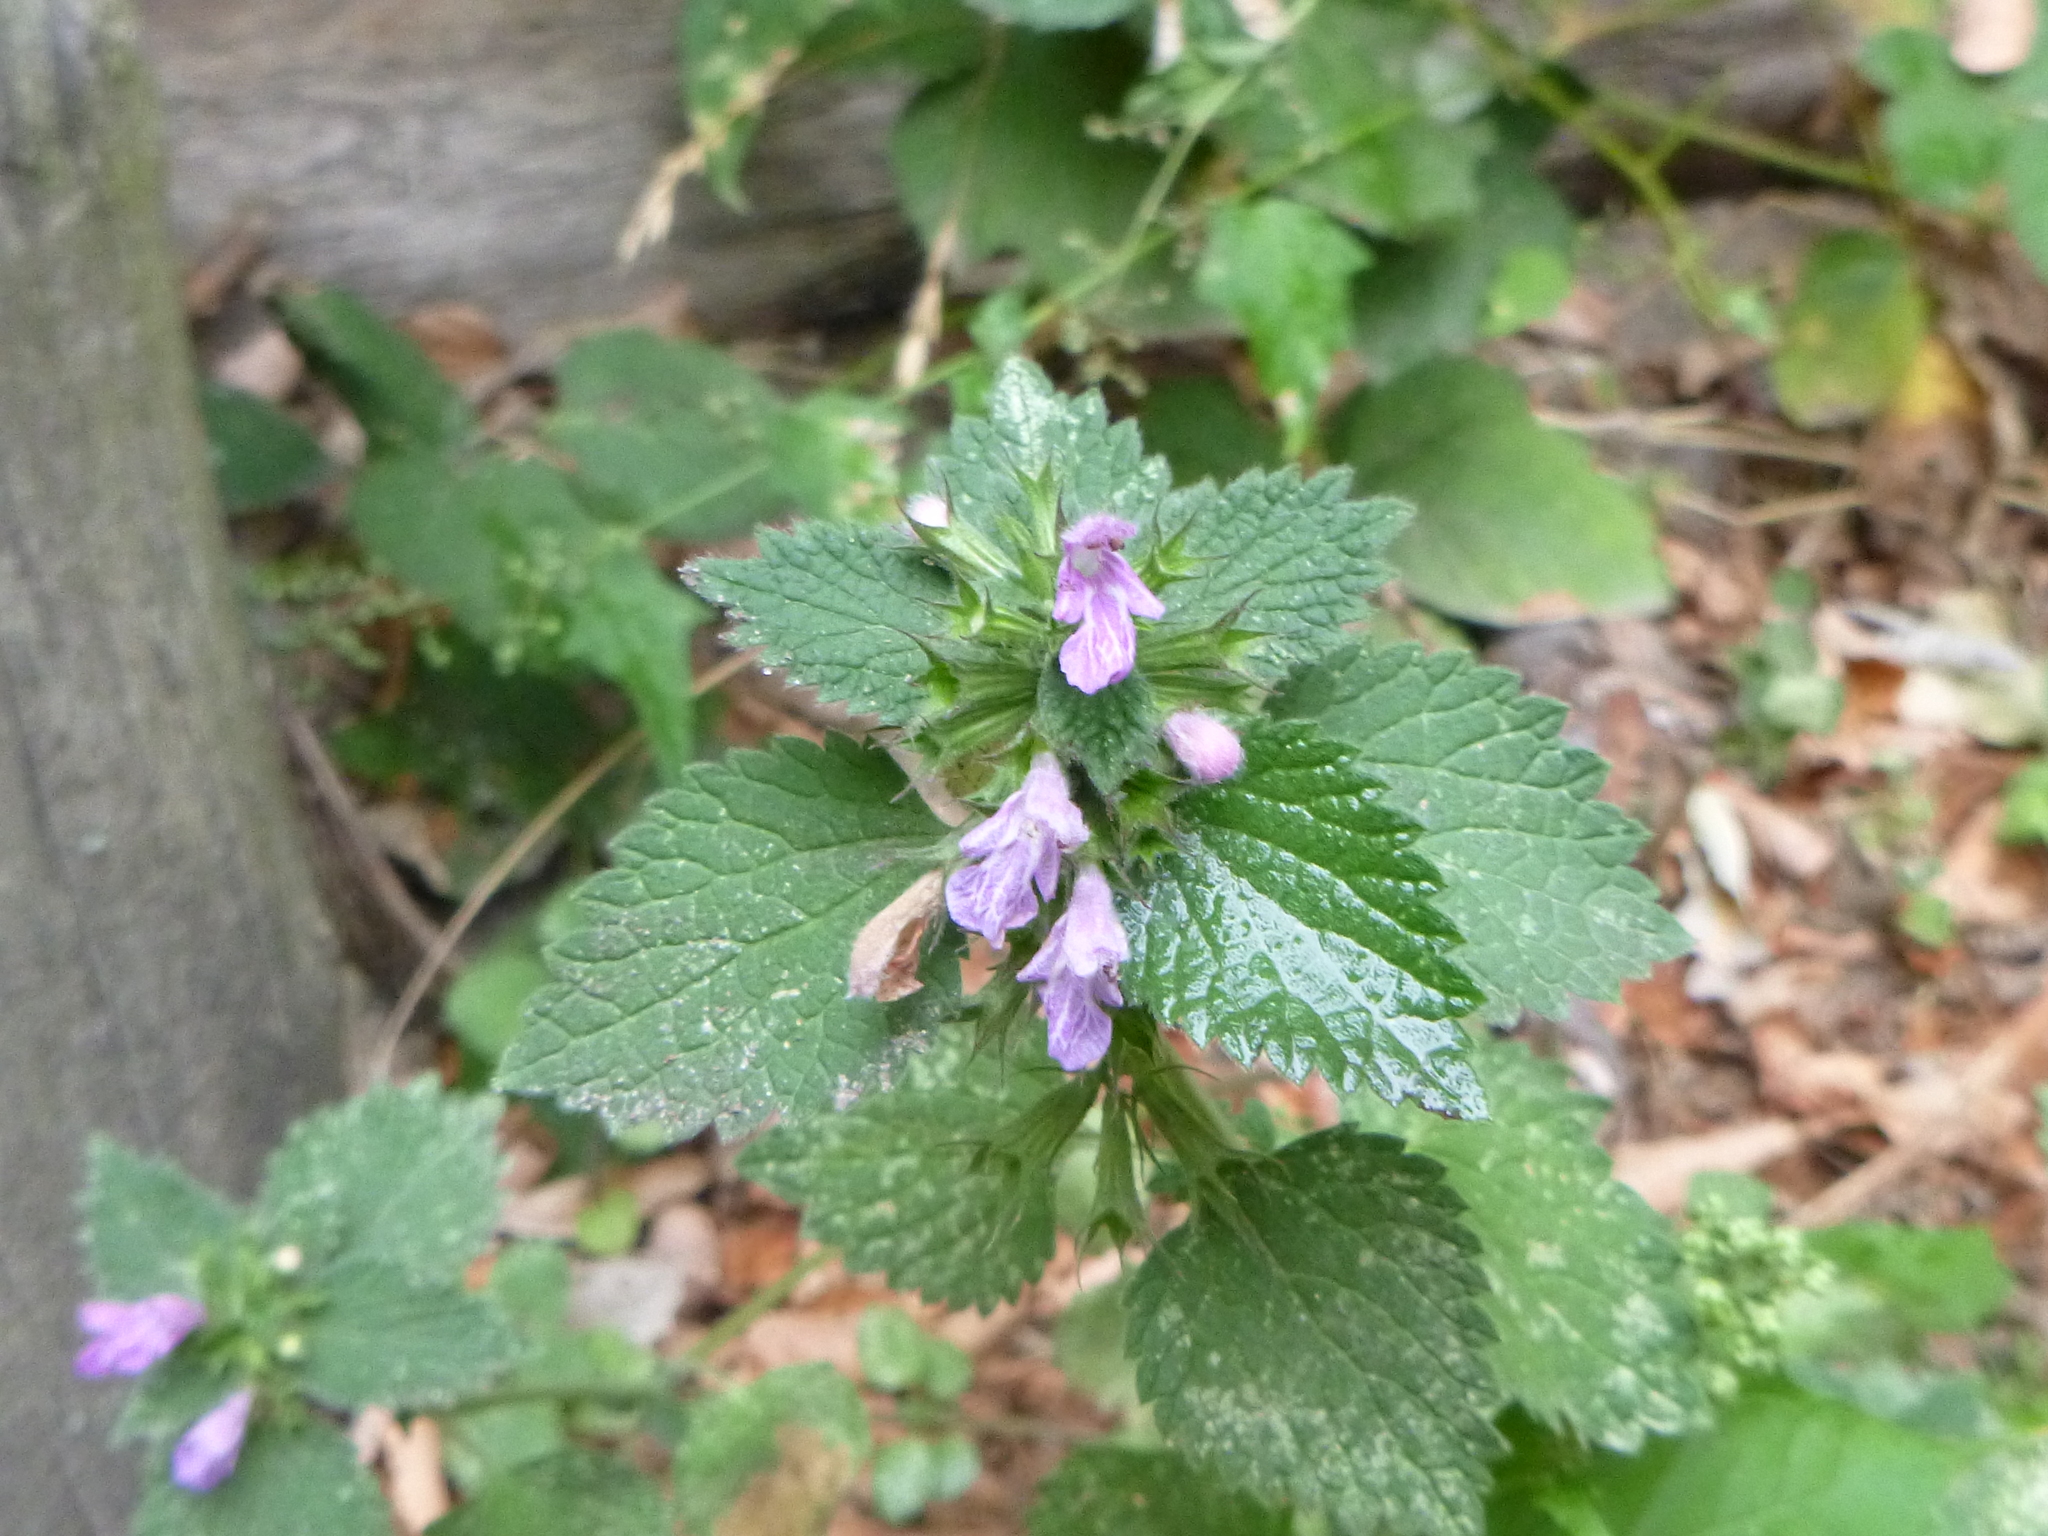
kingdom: Plantae
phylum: Tracheophyta
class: Magnoliopsida
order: Lamiales
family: Lamiaceae
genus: Ballota
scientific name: Ballota nigra
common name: Black horehound
